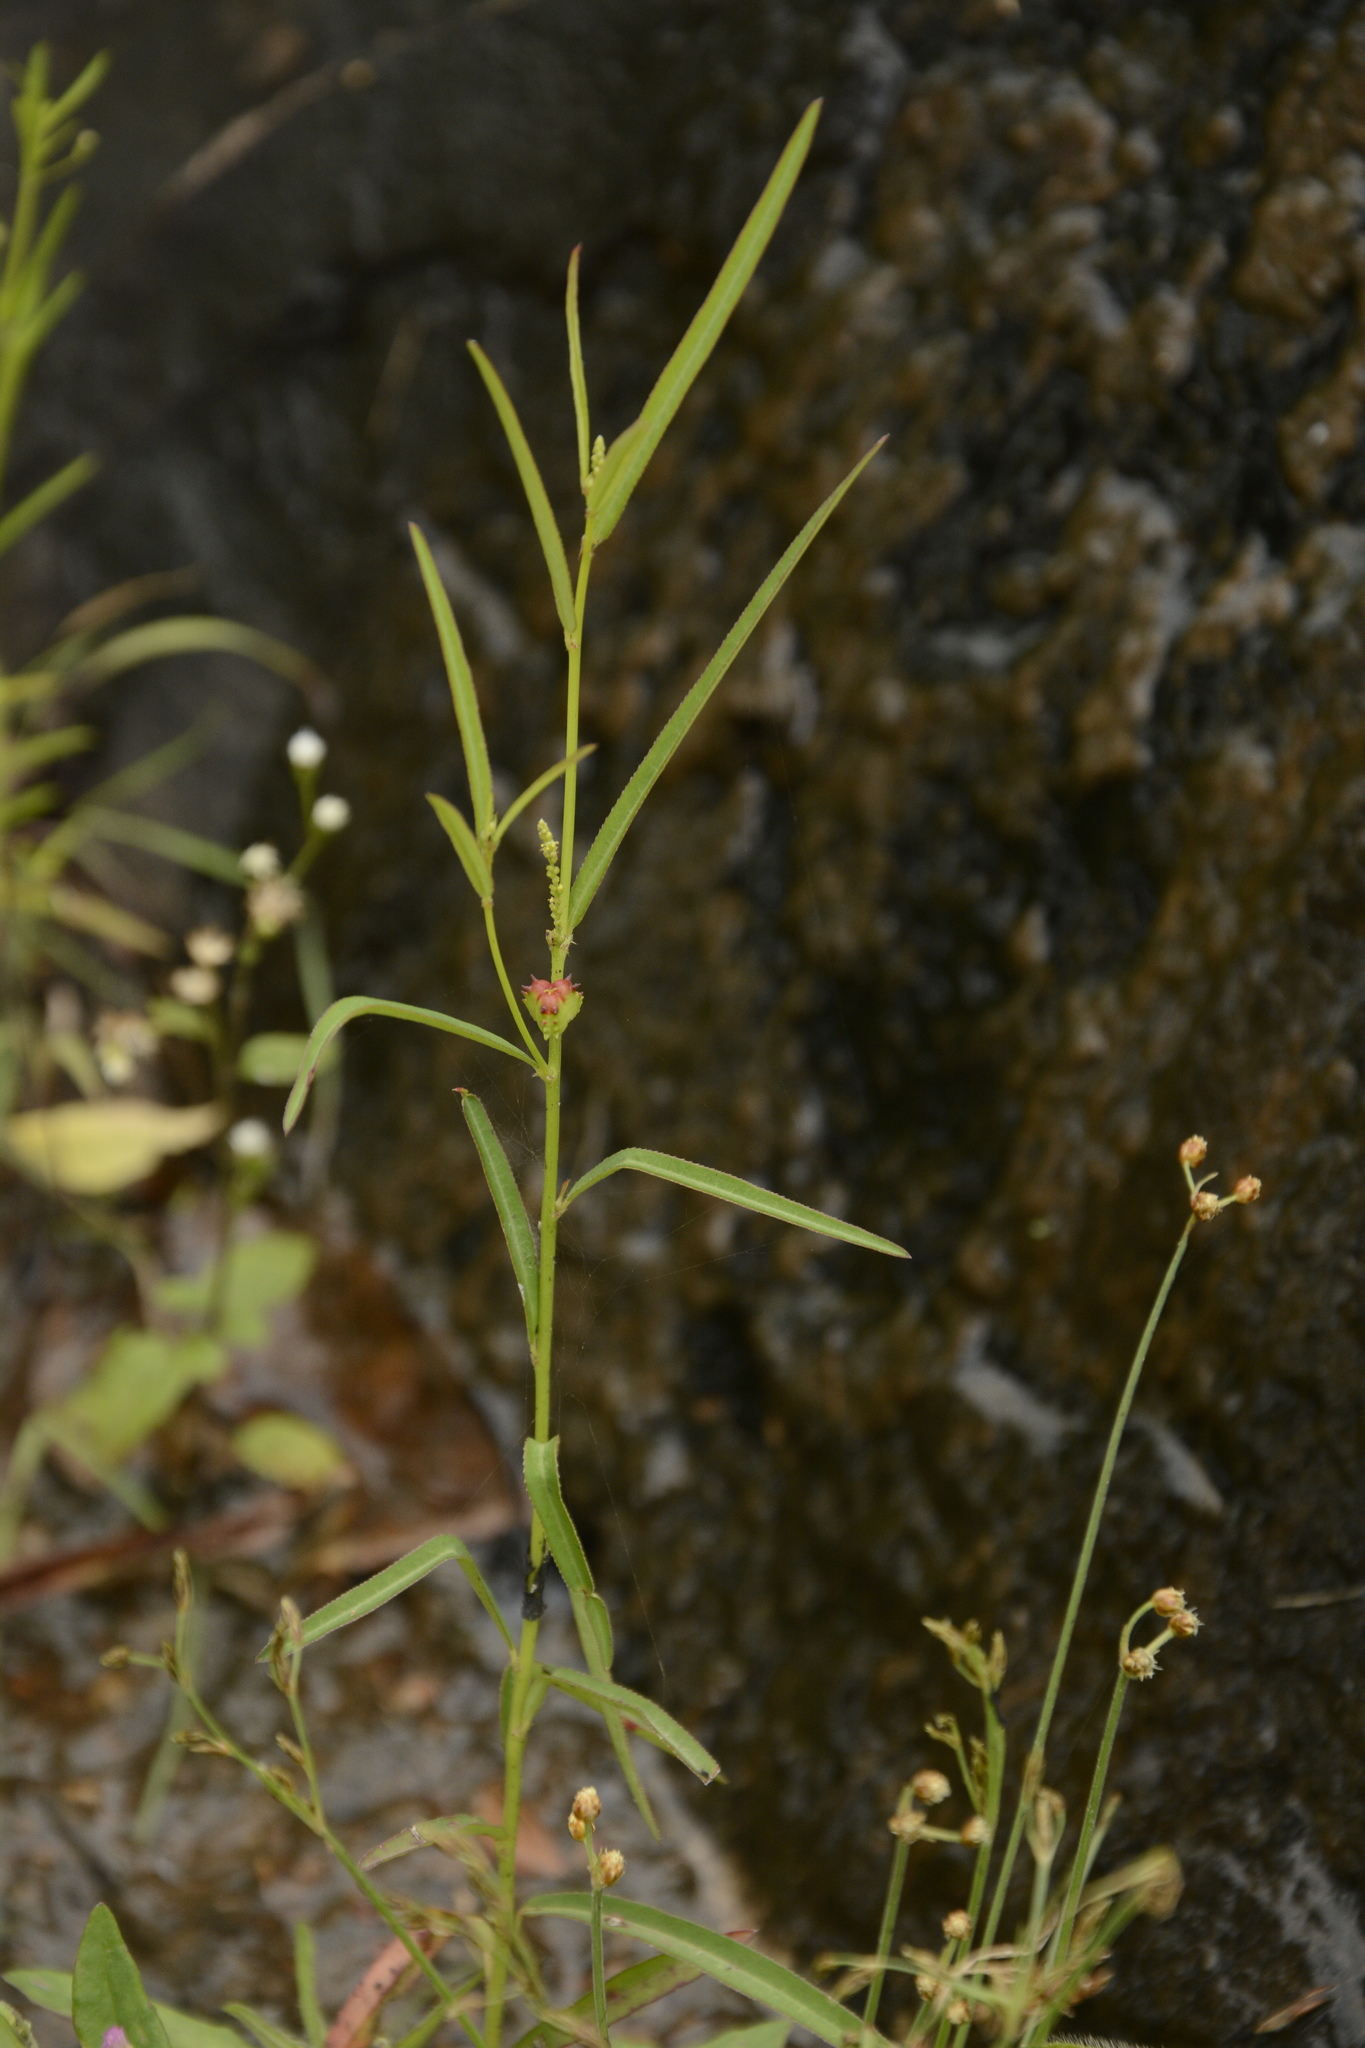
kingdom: Plantae
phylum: Tracheophyta
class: Magnoliopsida
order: Malpighiales
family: Euphorbiaceae
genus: Microstachys
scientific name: Microstachys chamaelea
